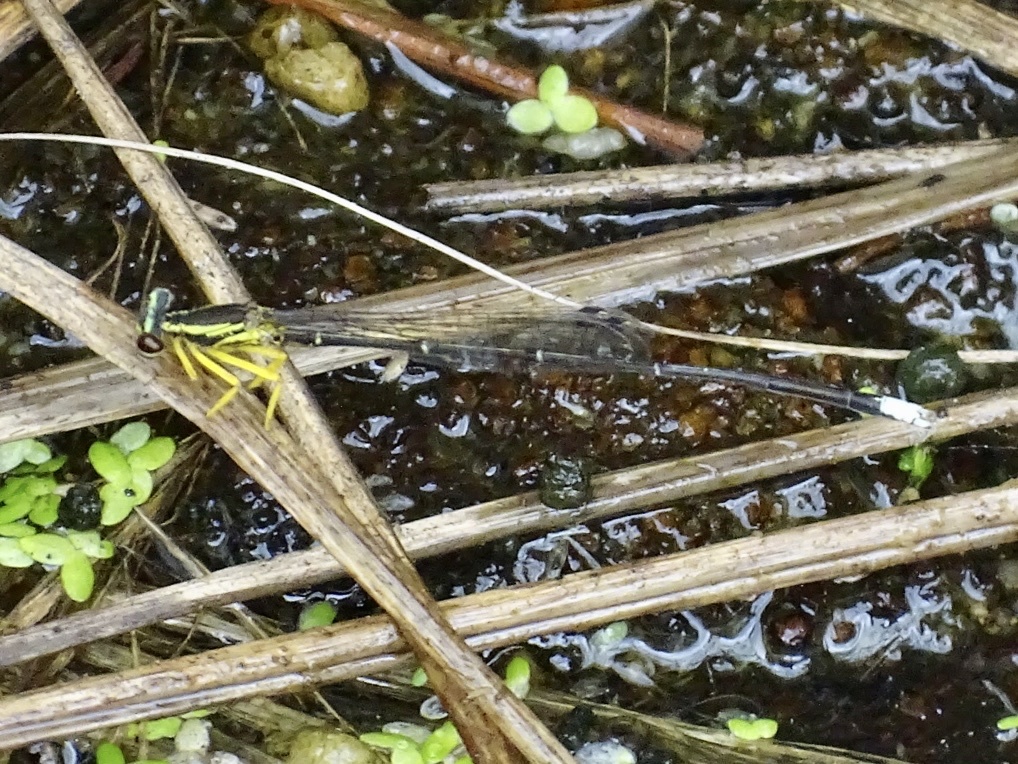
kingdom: Animalia
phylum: Arthropoda
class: Insecta
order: Odonata
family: Platycnemididae
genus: Copera
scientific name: Copera marginipes
